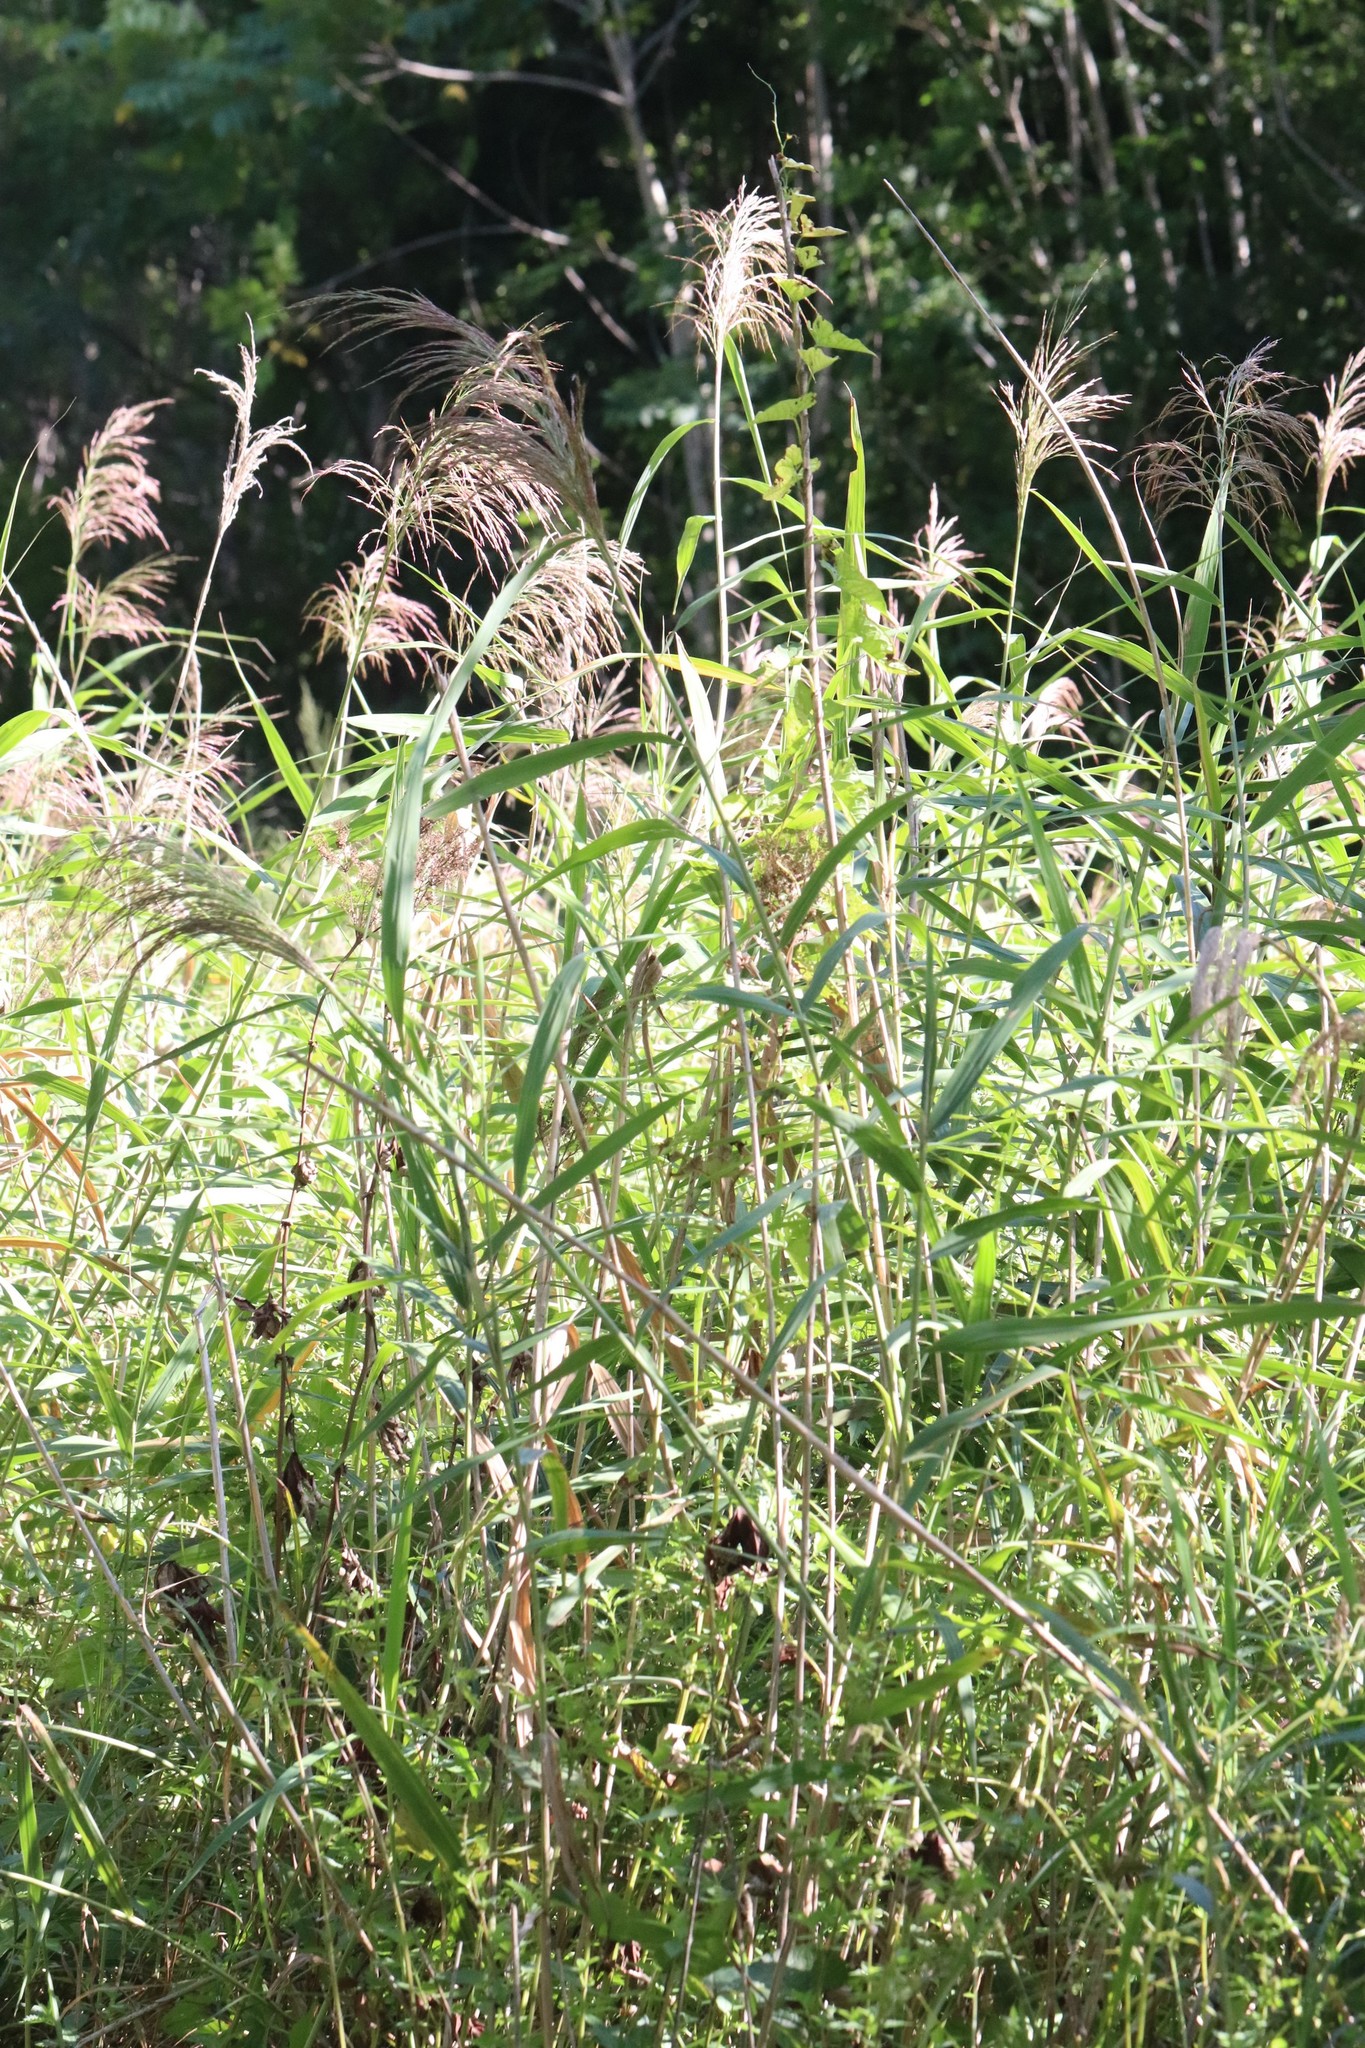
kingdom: Plantae
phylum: Tracheophyta
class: Liliopsida
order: Poales
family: Poaceae
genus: Phragmites
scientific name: Phragmites australis
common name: Common reed
